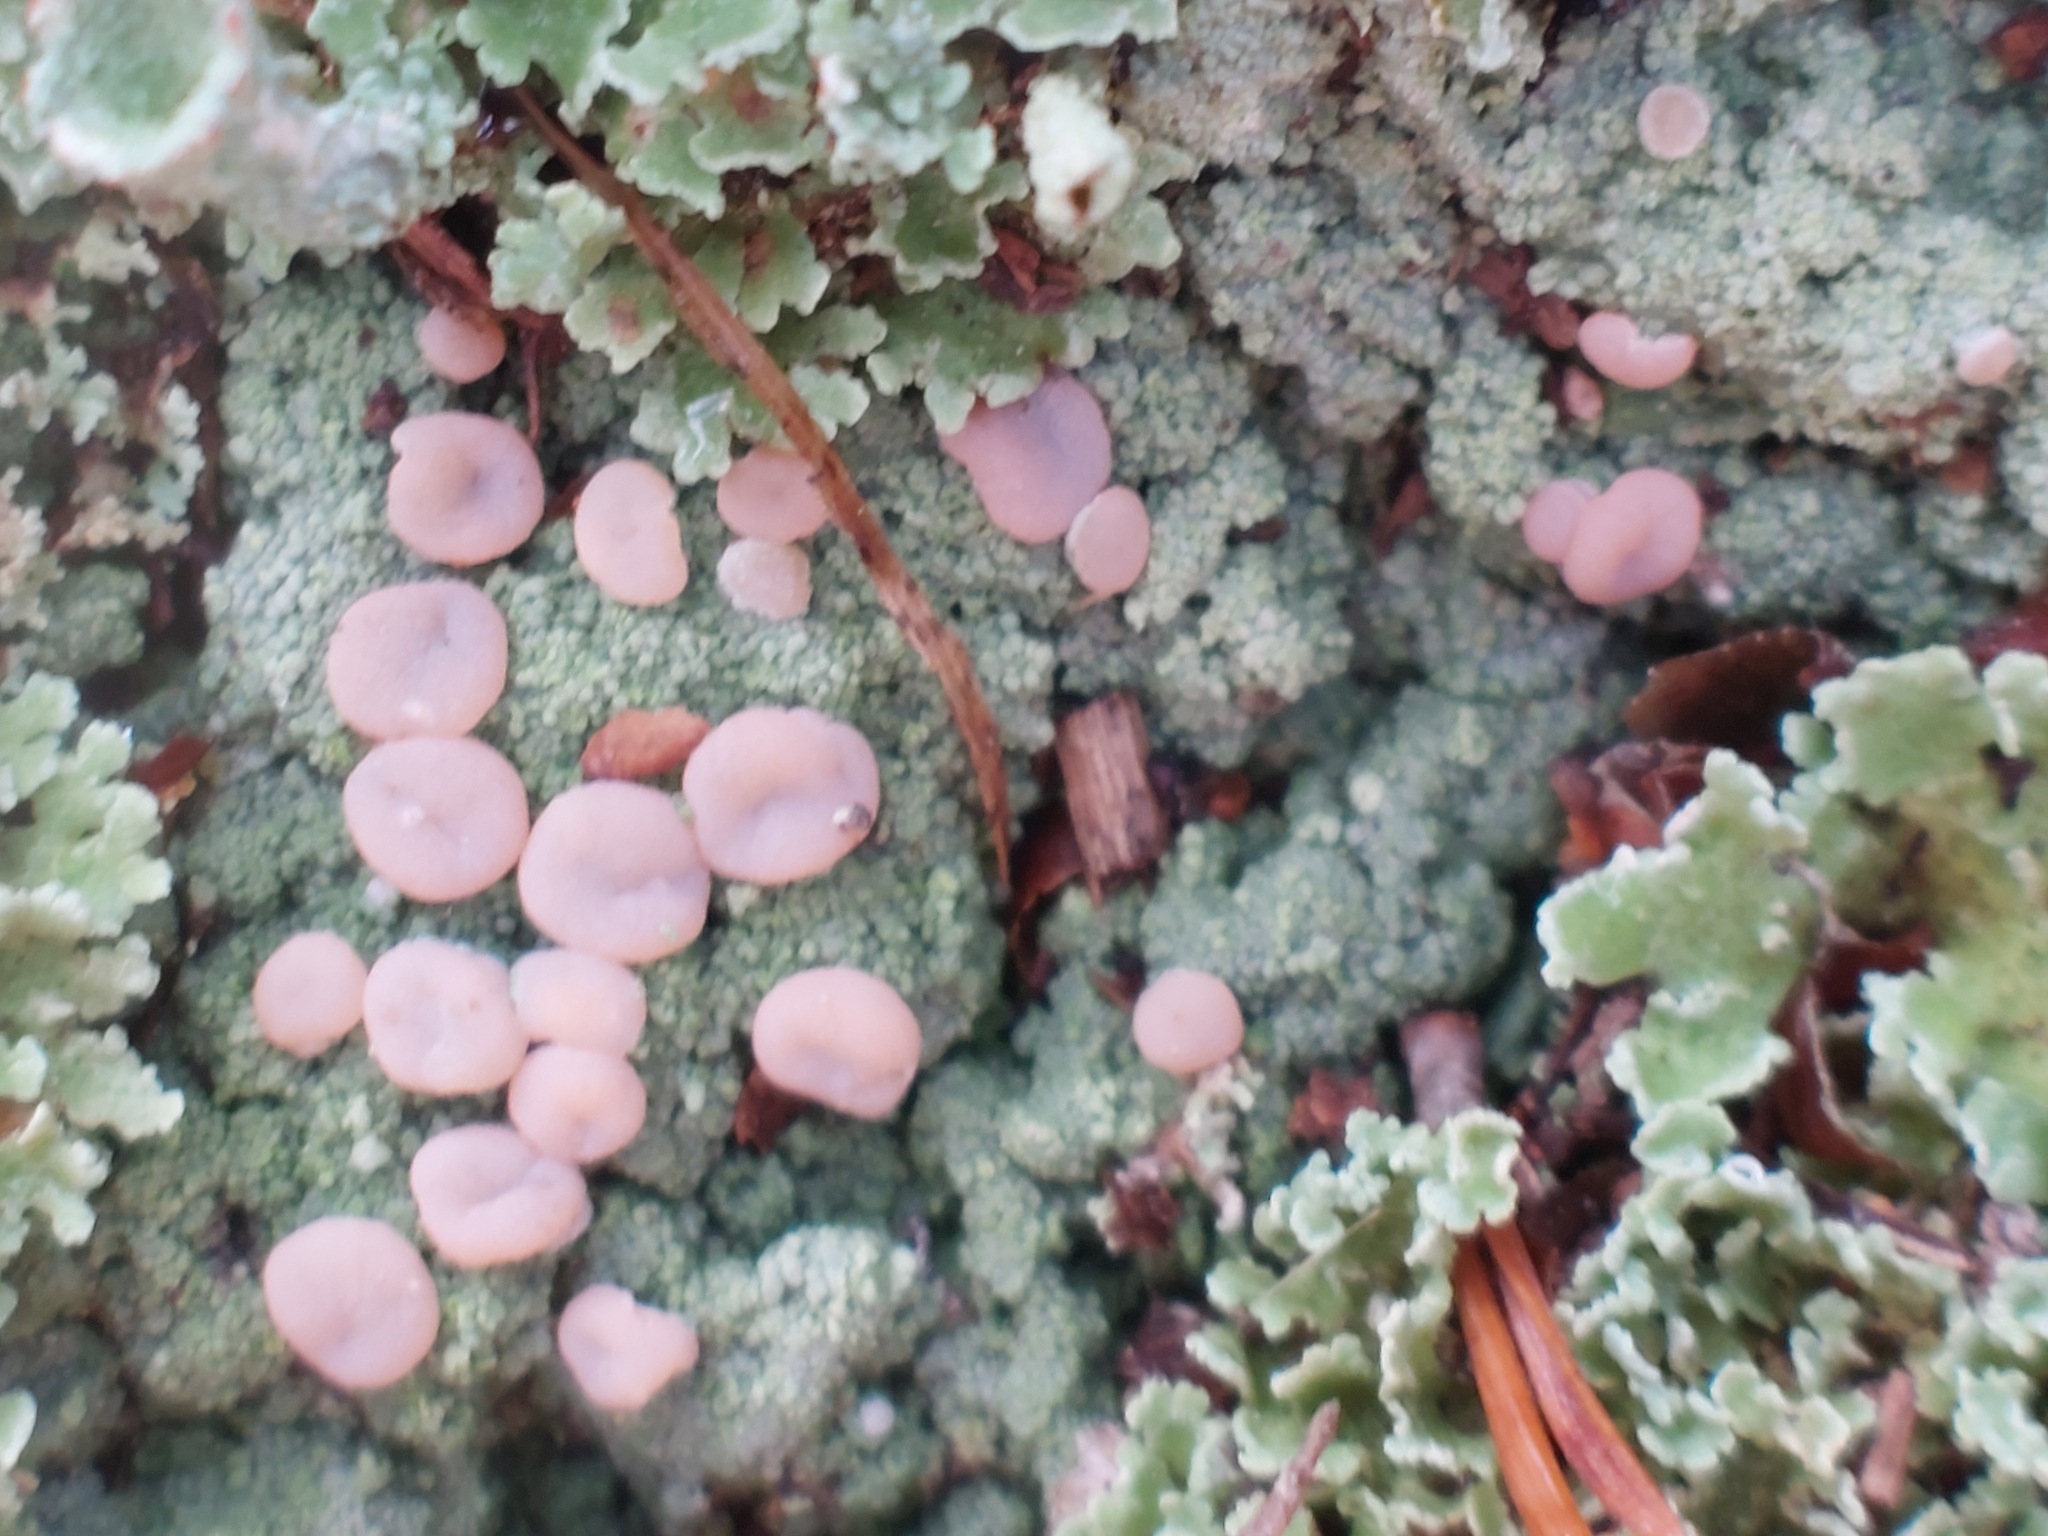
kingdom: Fungi
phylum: Ascomycota
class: Lecanoromycetes
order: Pertusariales
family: Icmadophilaceae
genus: Icmadophila
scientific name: Icmadophila ericetorum
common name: Candy lichen
